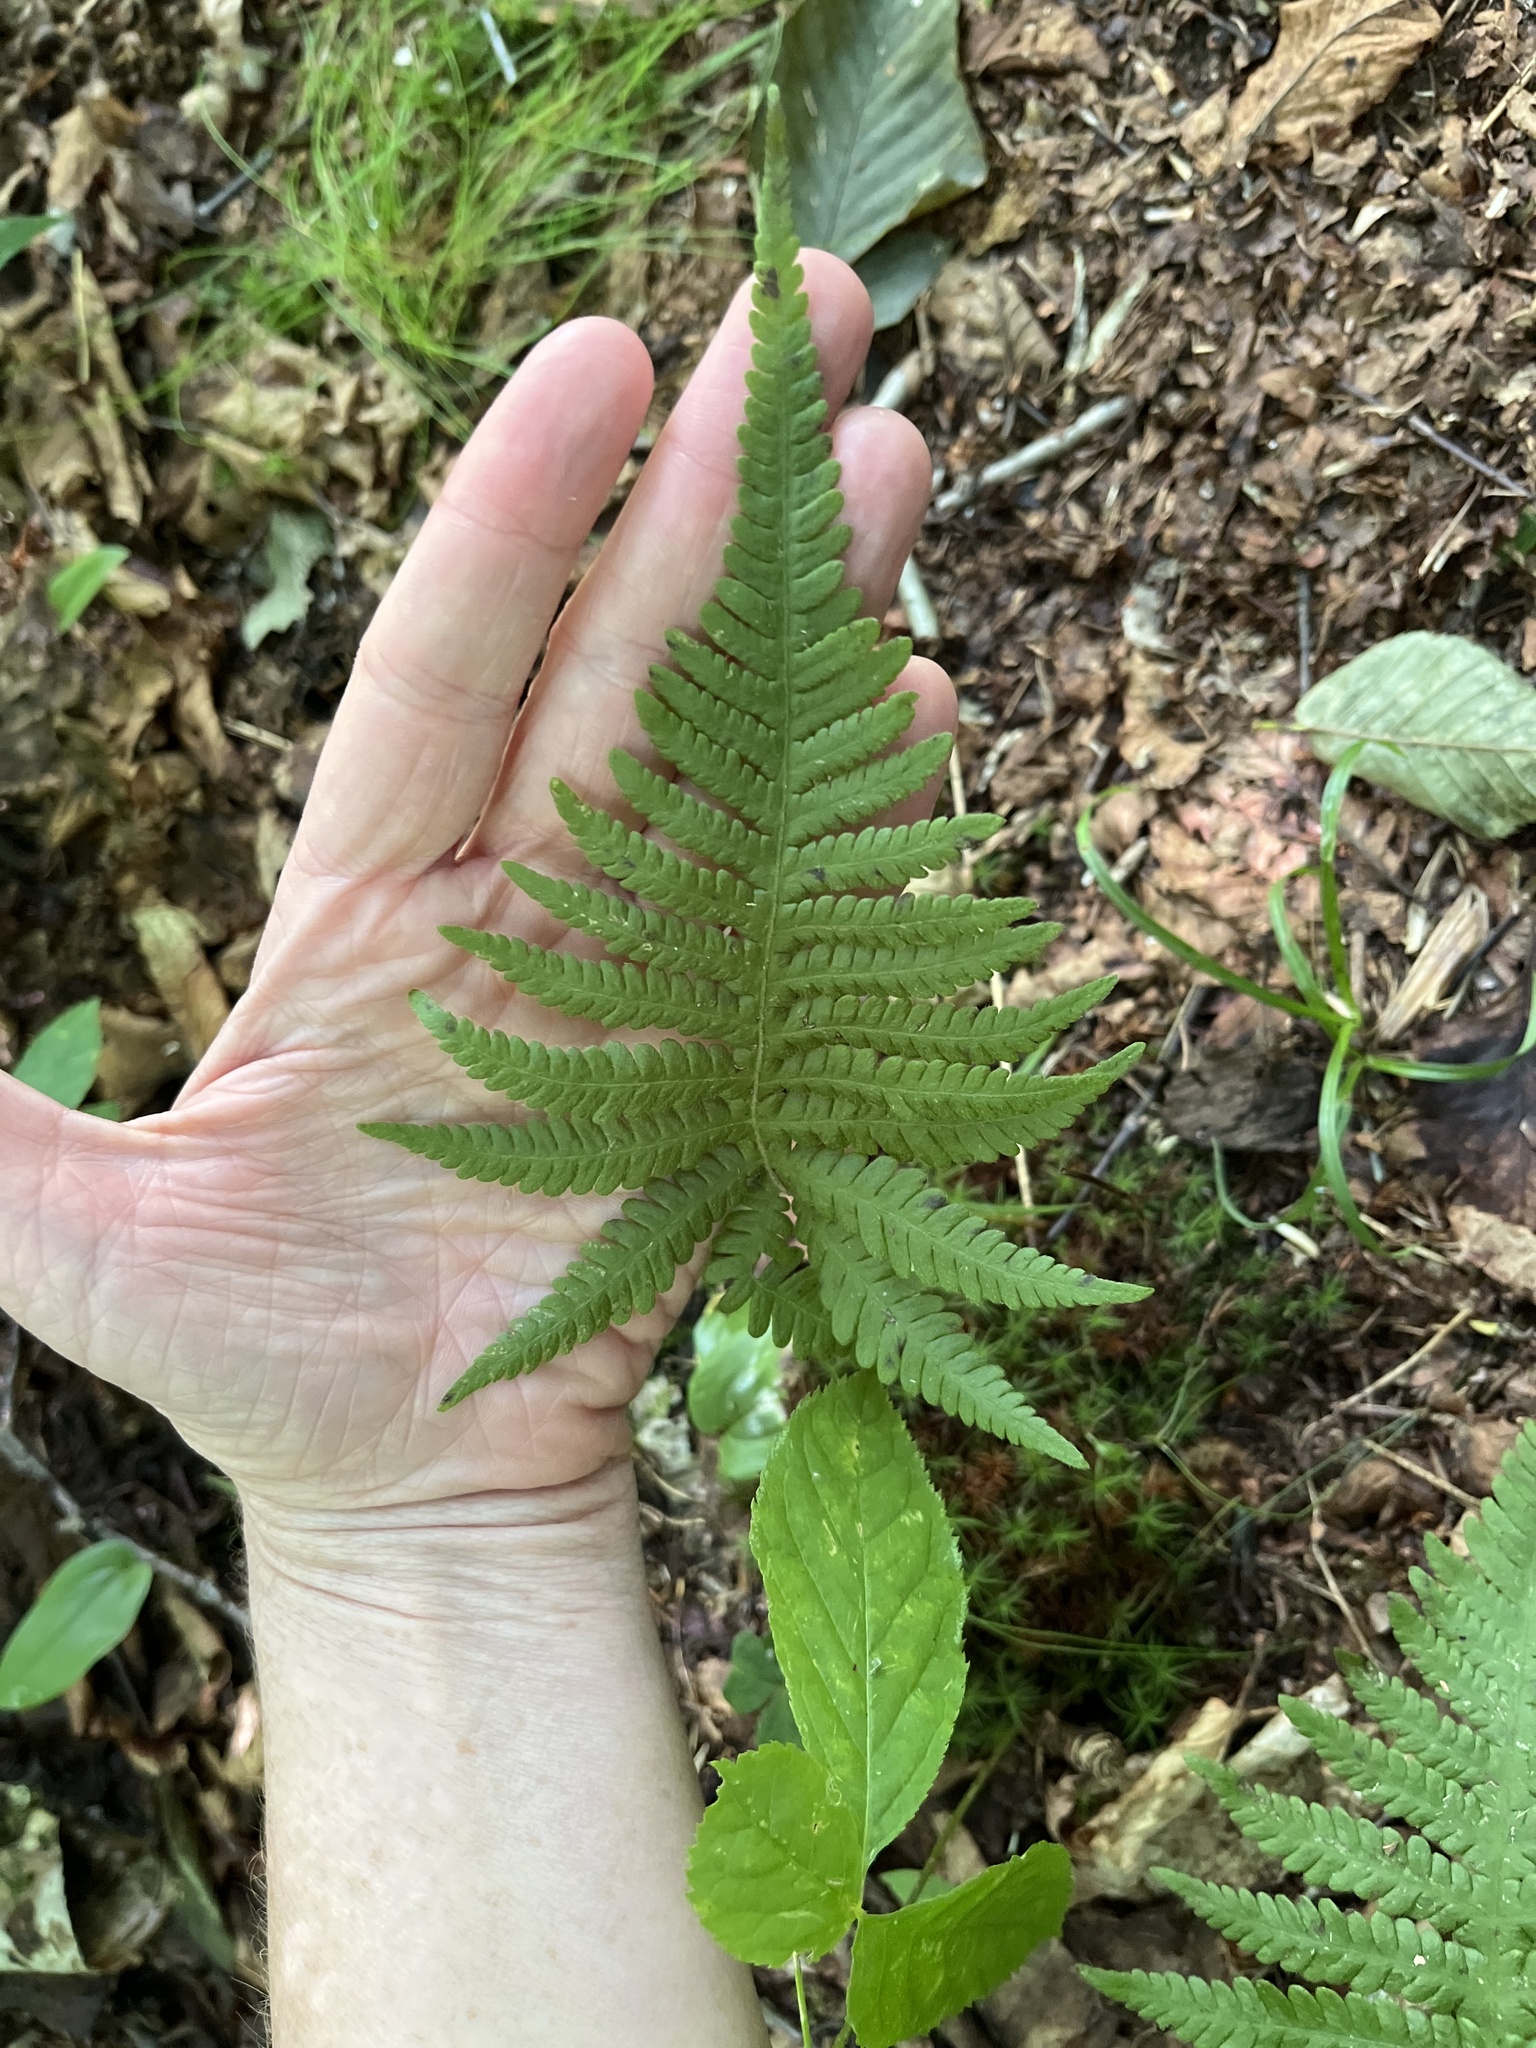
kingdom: Plantae
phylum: Tracheophyta
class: Polypodiopsida
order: Polypodiales
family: Thelypteridaceae
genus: Phegopteris
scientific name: Phegopteris connectilis
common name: Beech fern
